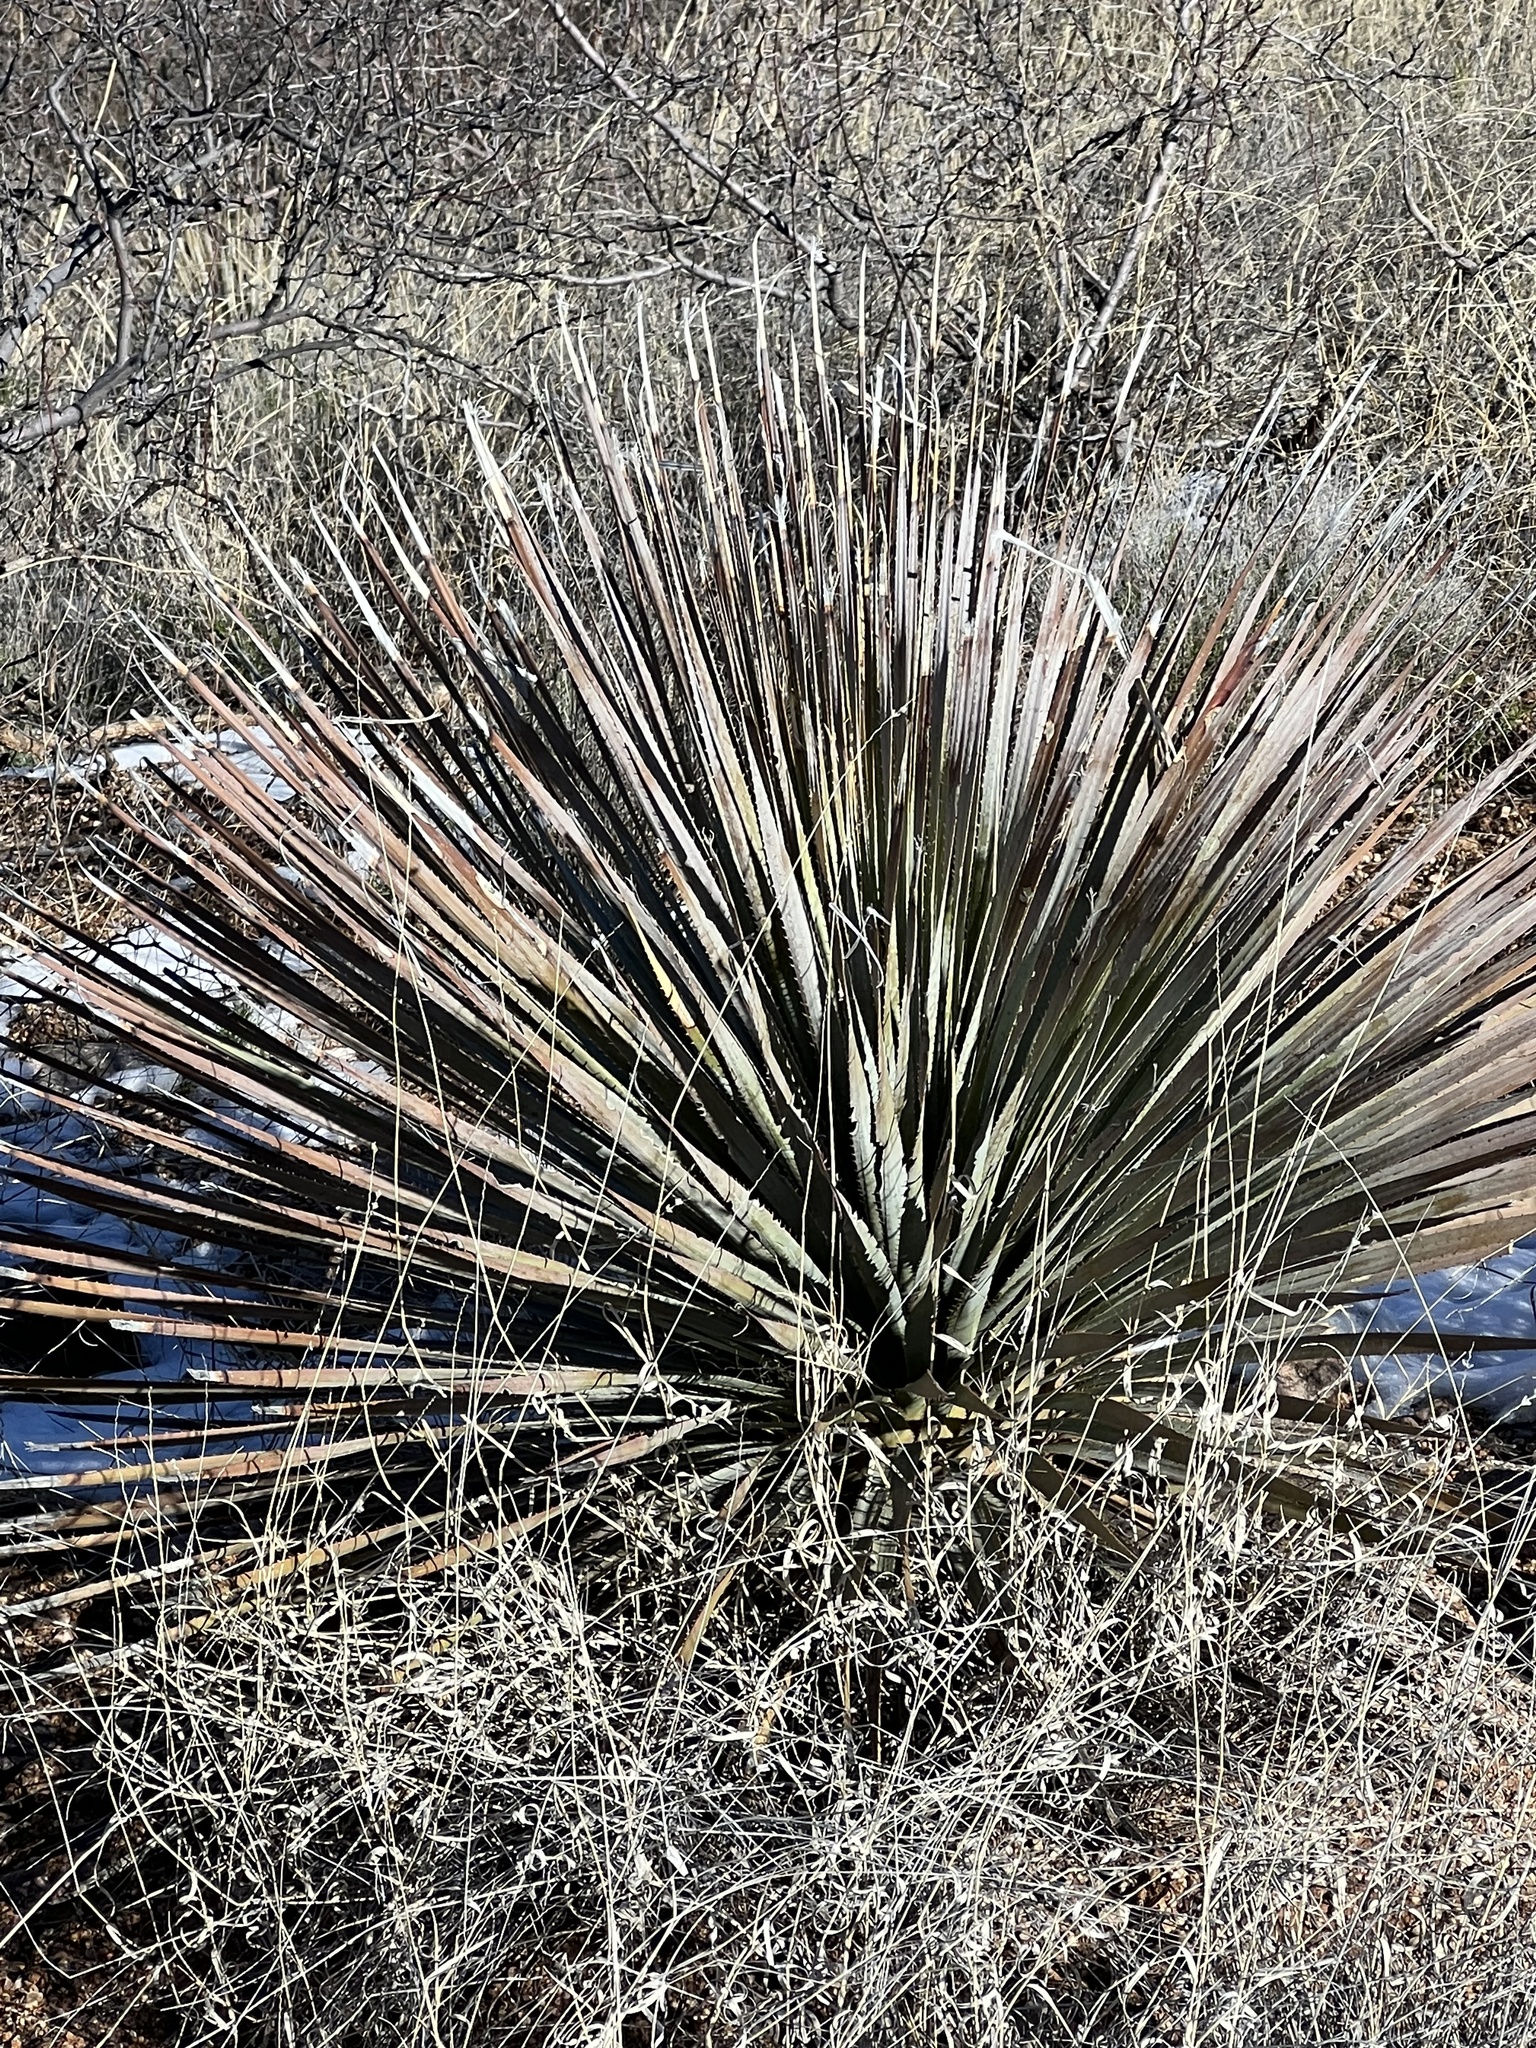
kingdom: Plantae
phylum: Tracheophyta
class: Liliopsida
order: Asparagales
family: Asparagaceae
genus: Dasylirion
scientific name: Dasylirion wheeleri
